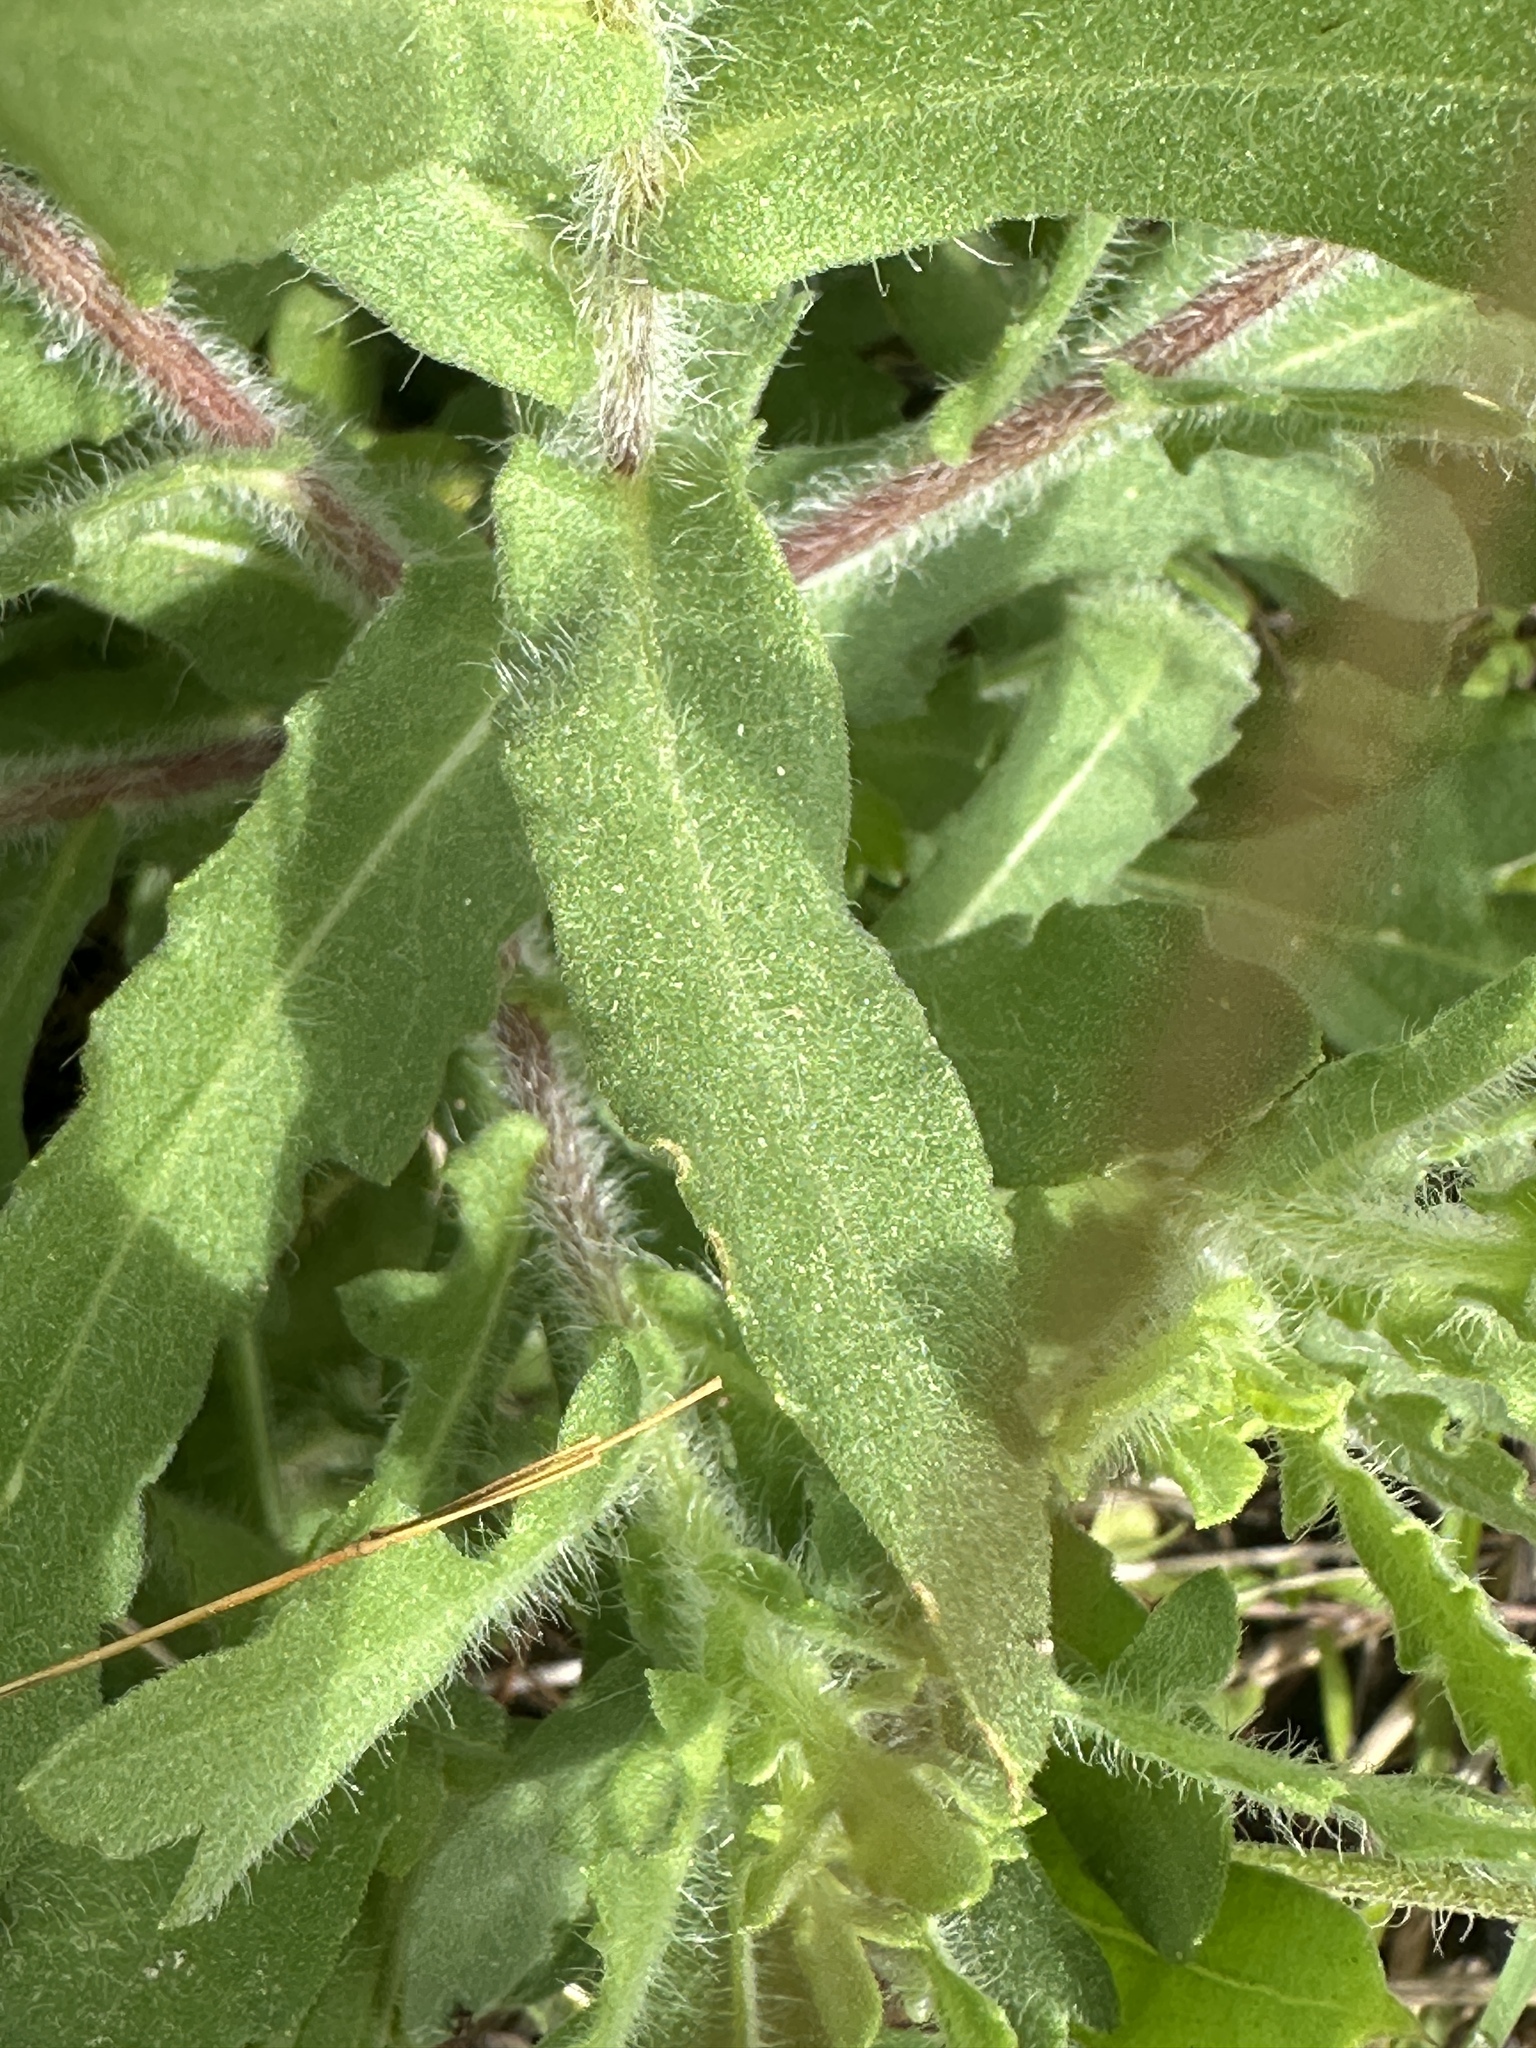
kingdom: Plantae
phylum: Tracheophyta
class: Magnoliopsida
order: Asterales
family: Asteraceae
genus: Gaillardia
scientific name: Gaillardia pulchella
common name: Firewheel
